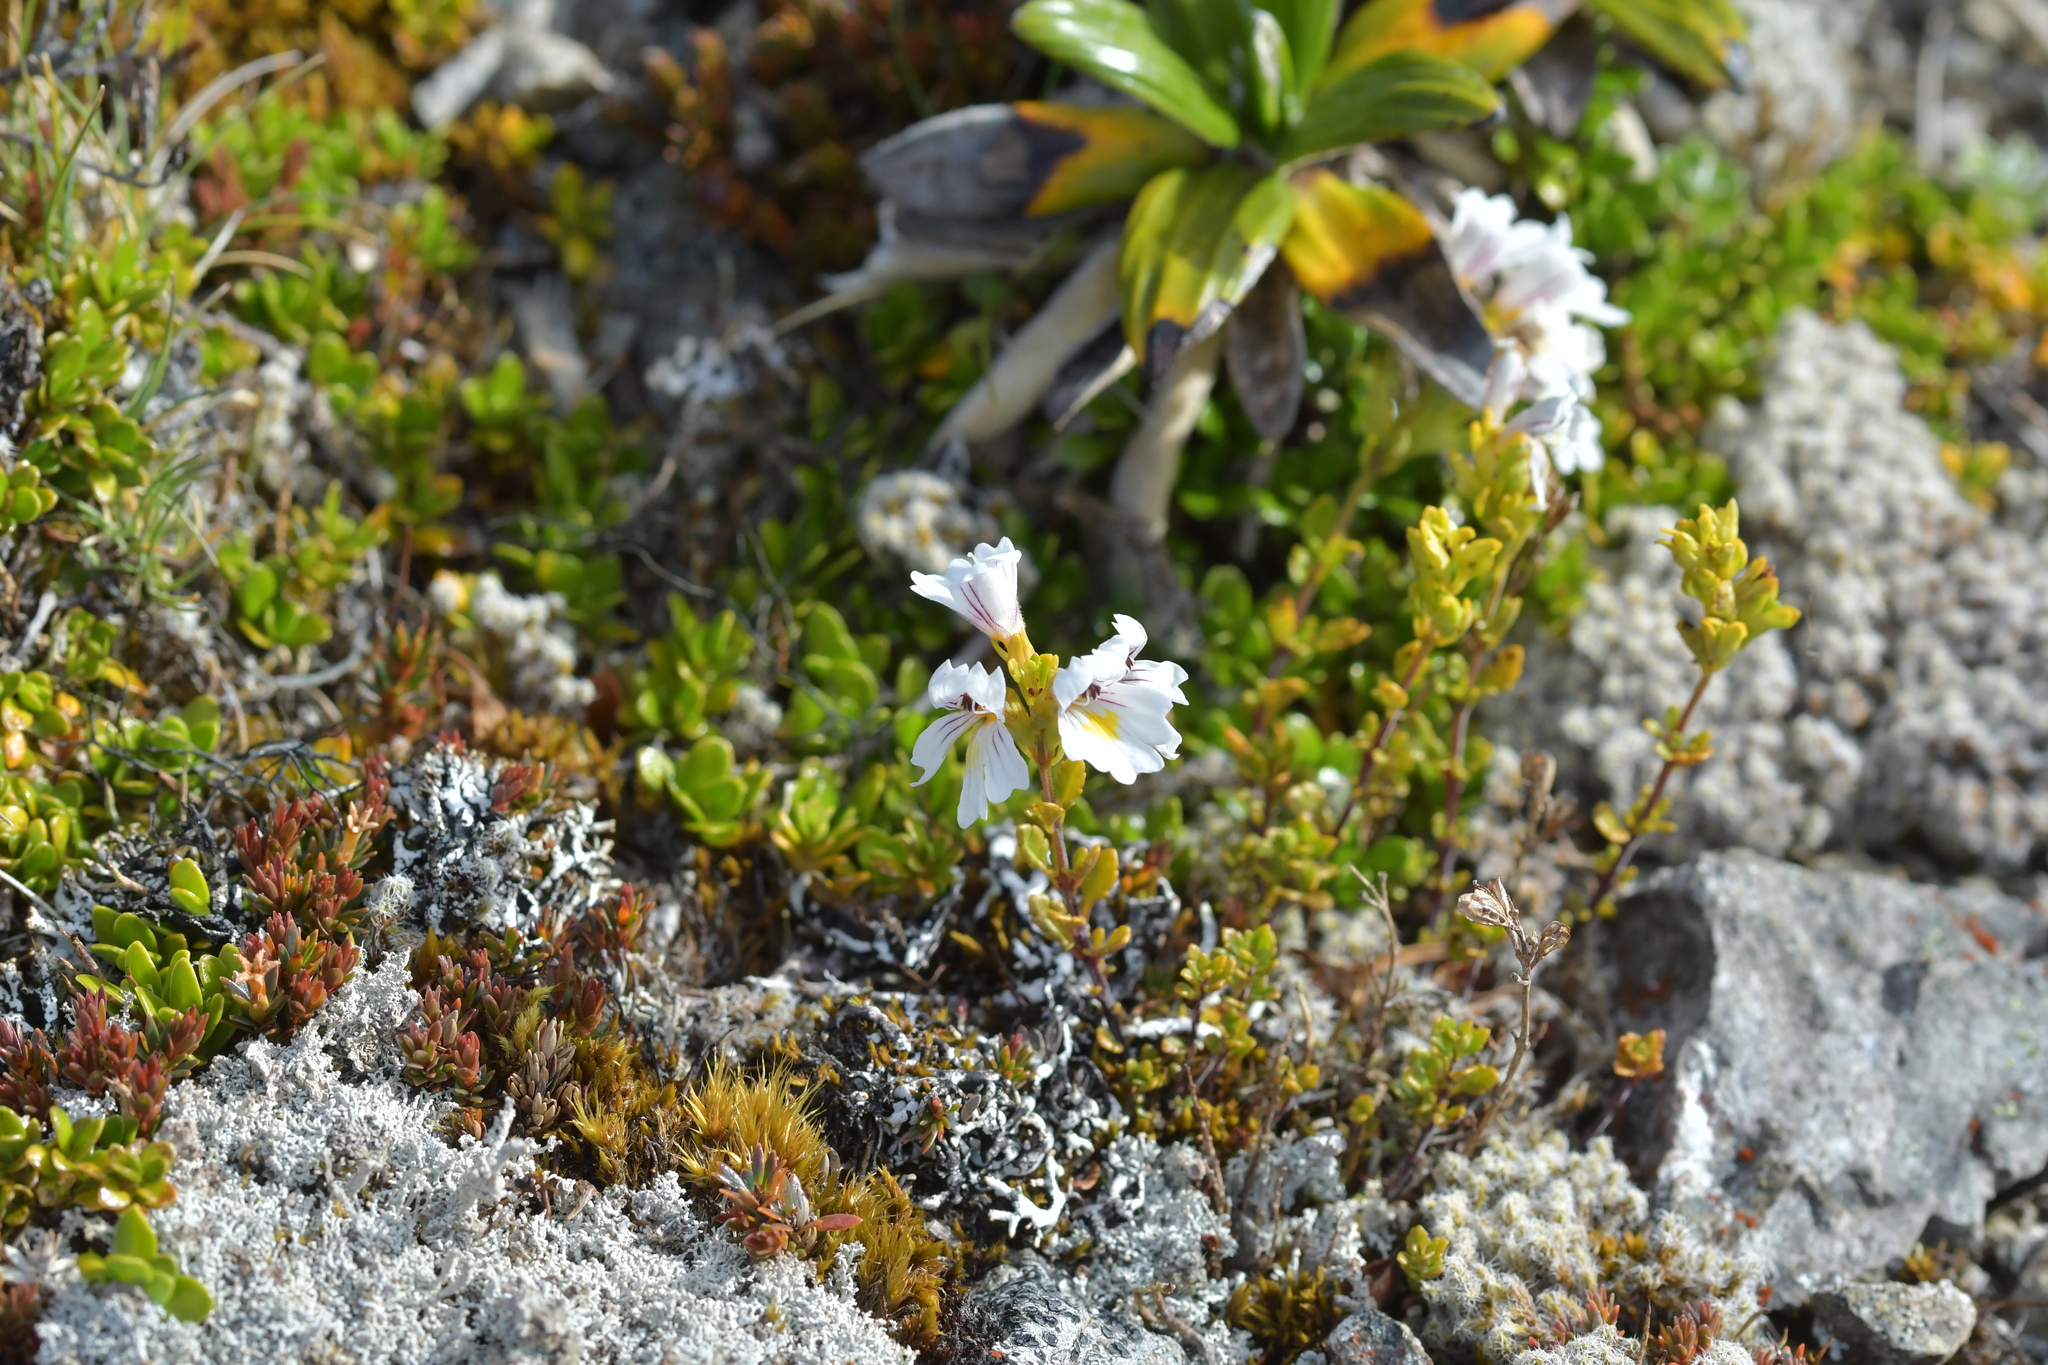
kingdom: Plantae
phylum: Tracheophyta
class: Magnoliopsida
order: Lamiales
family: Orobanchaceae
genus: Euphrasia
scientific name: Euphrasia cuneata
